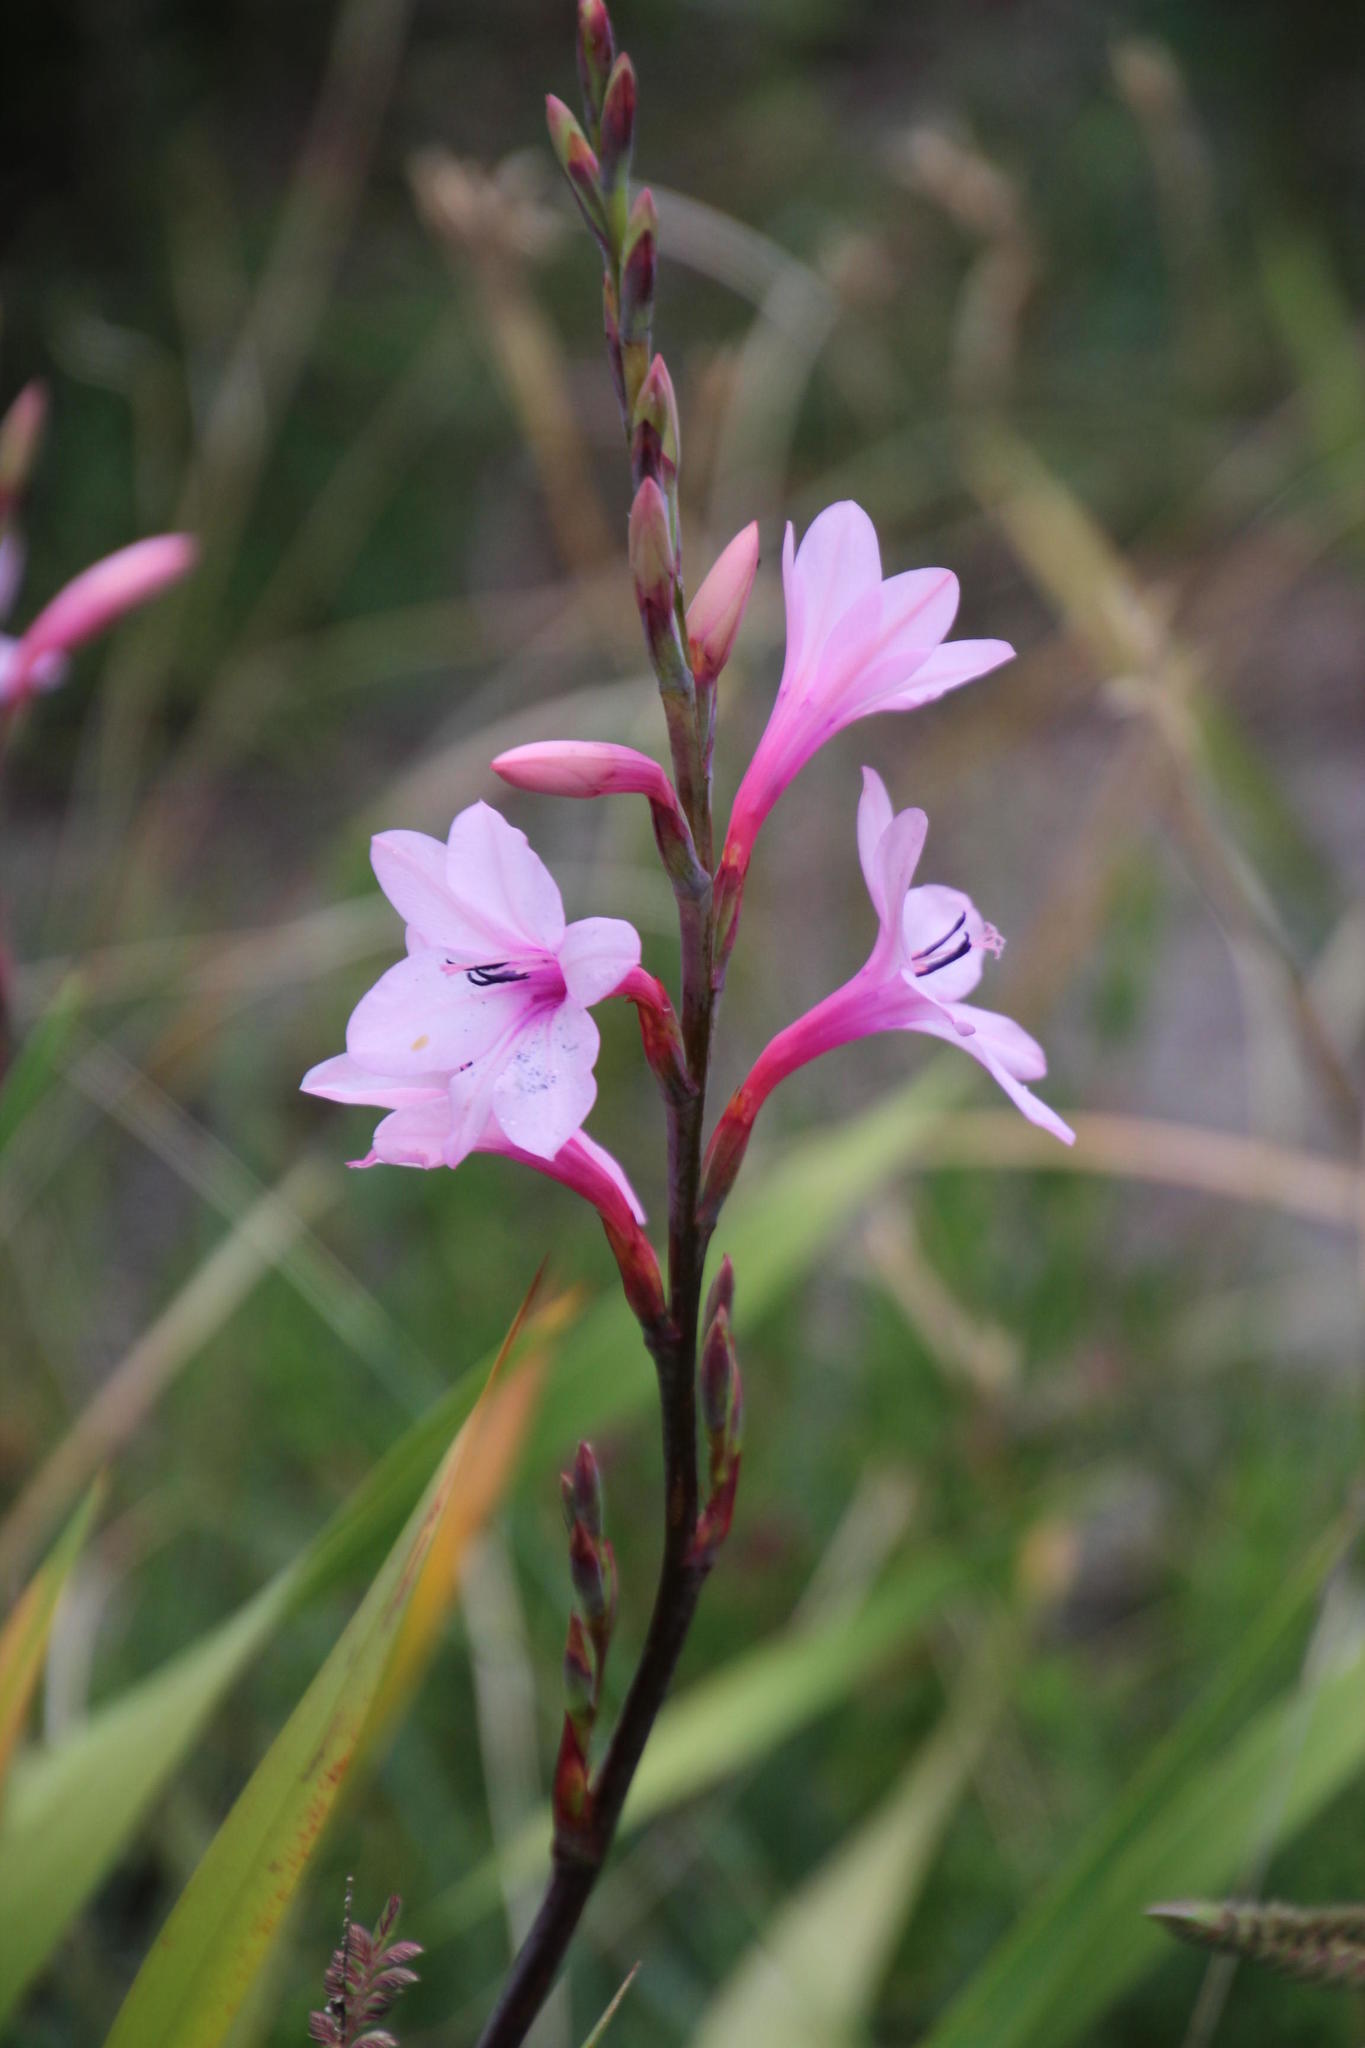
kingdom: Plantae
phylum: Tracheophyta
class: Liliopsida
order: Asparagales
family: Iridaceae
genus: Watsonia
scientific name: Watsonia borbonica
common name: Bugle-lily
